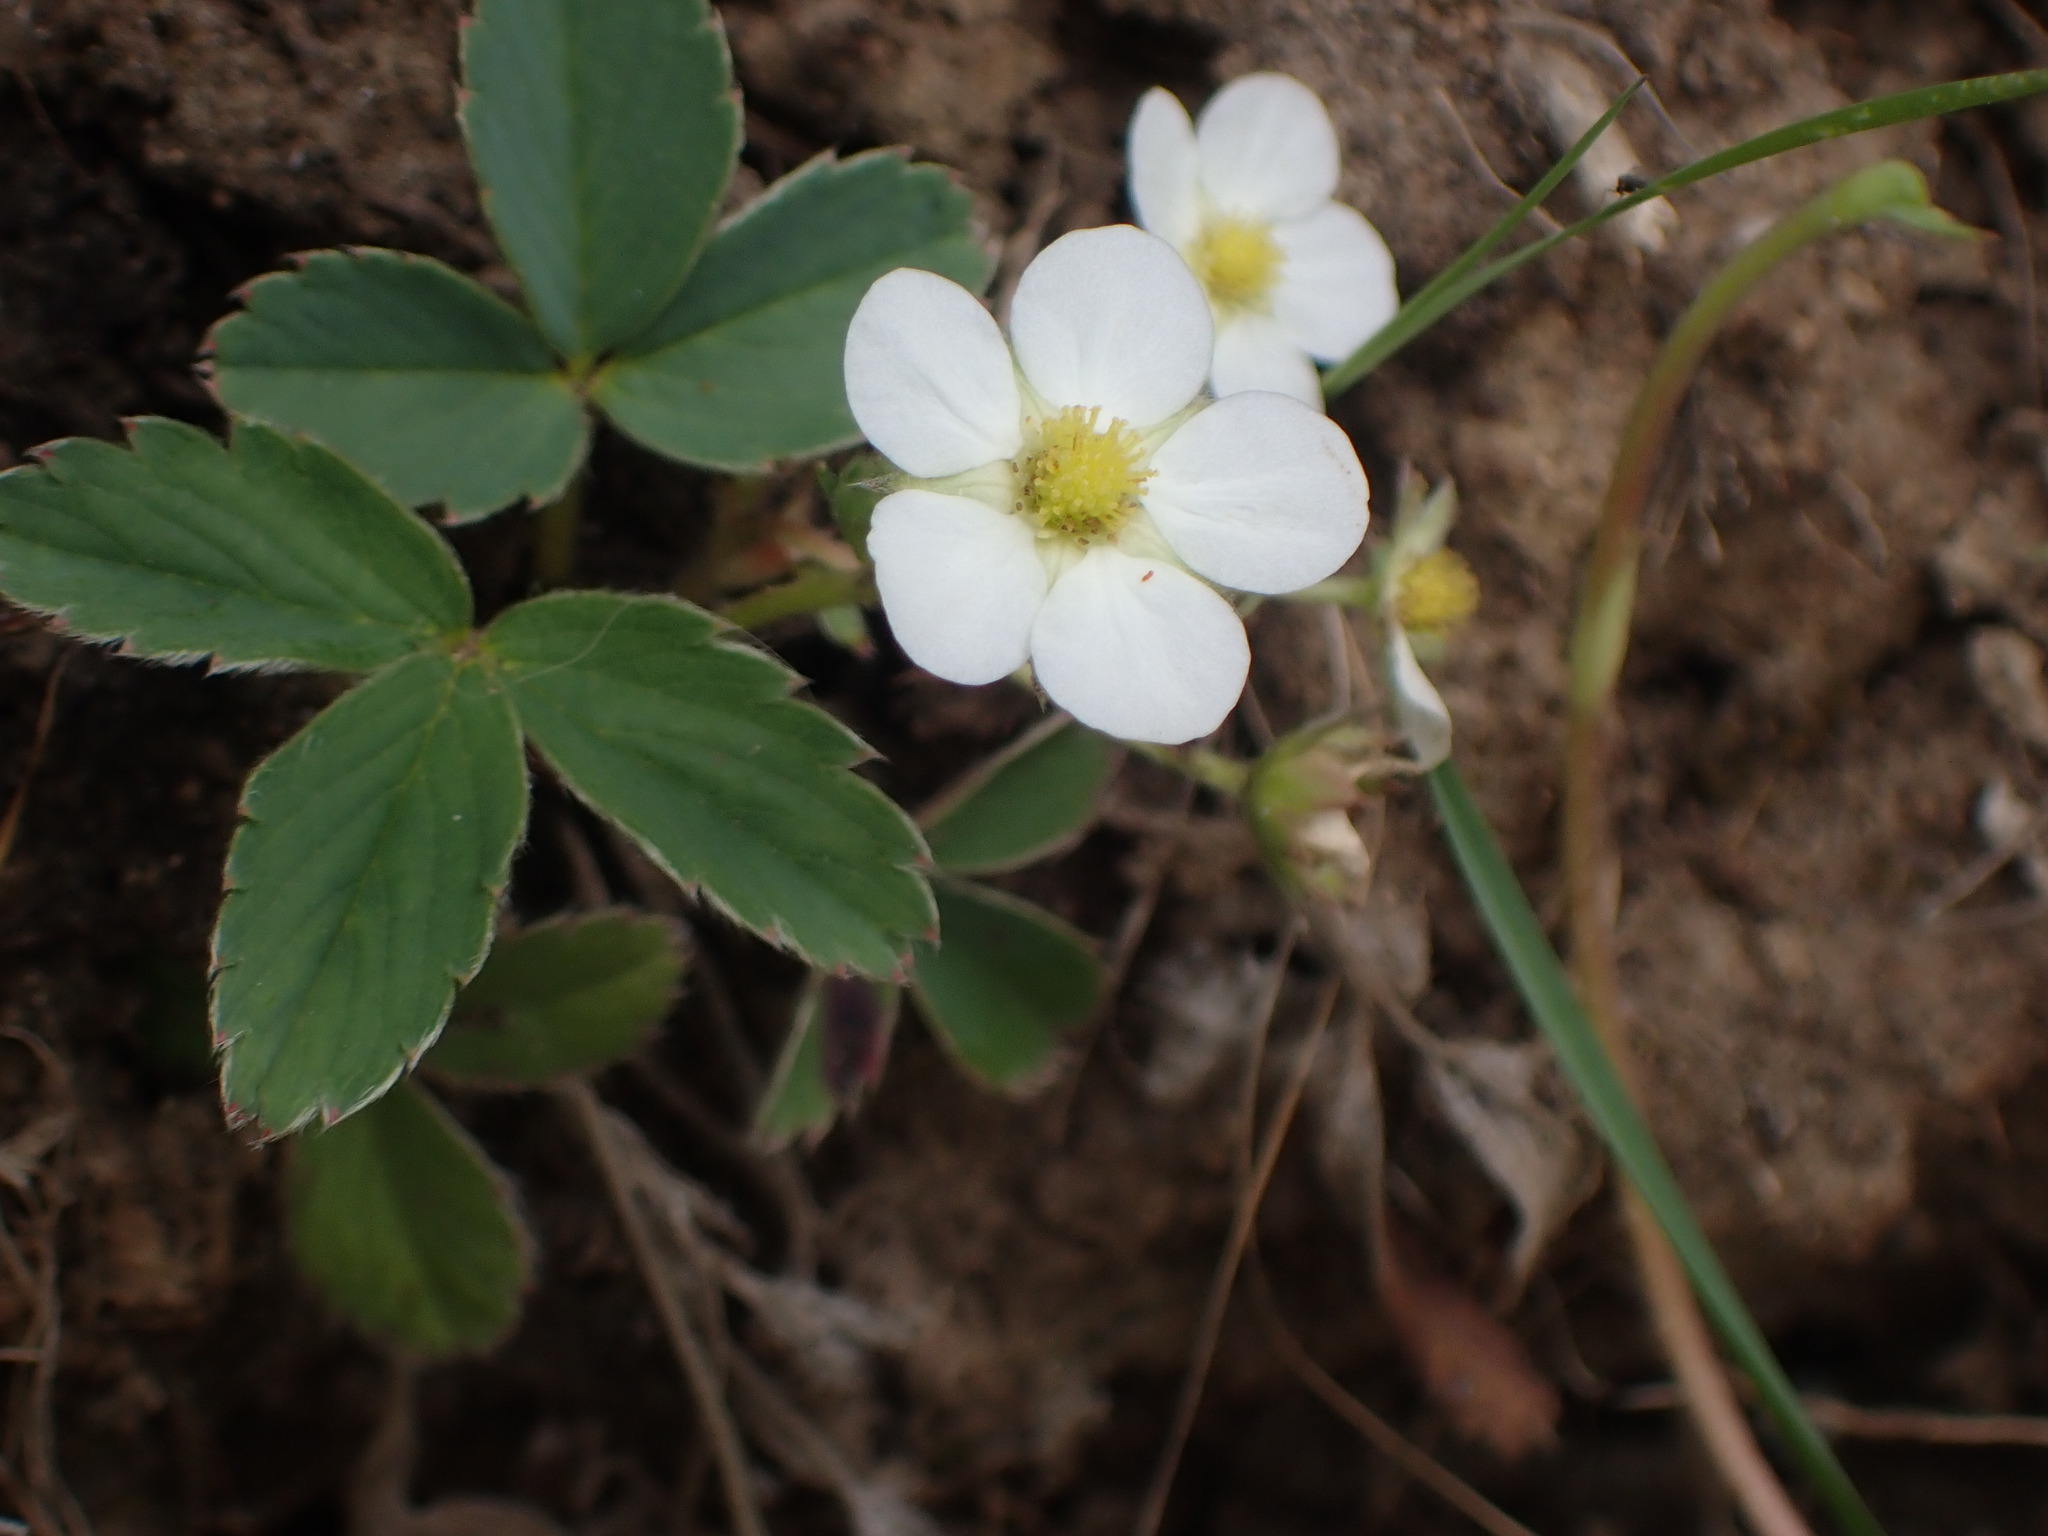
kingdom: Plantae
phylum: Tracheophyta
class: Magnoliopsida
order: Rosales
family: Rosaceae
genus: Fragaria
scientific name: Fragaria virginiana
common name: Thickleaved wild strawberry
